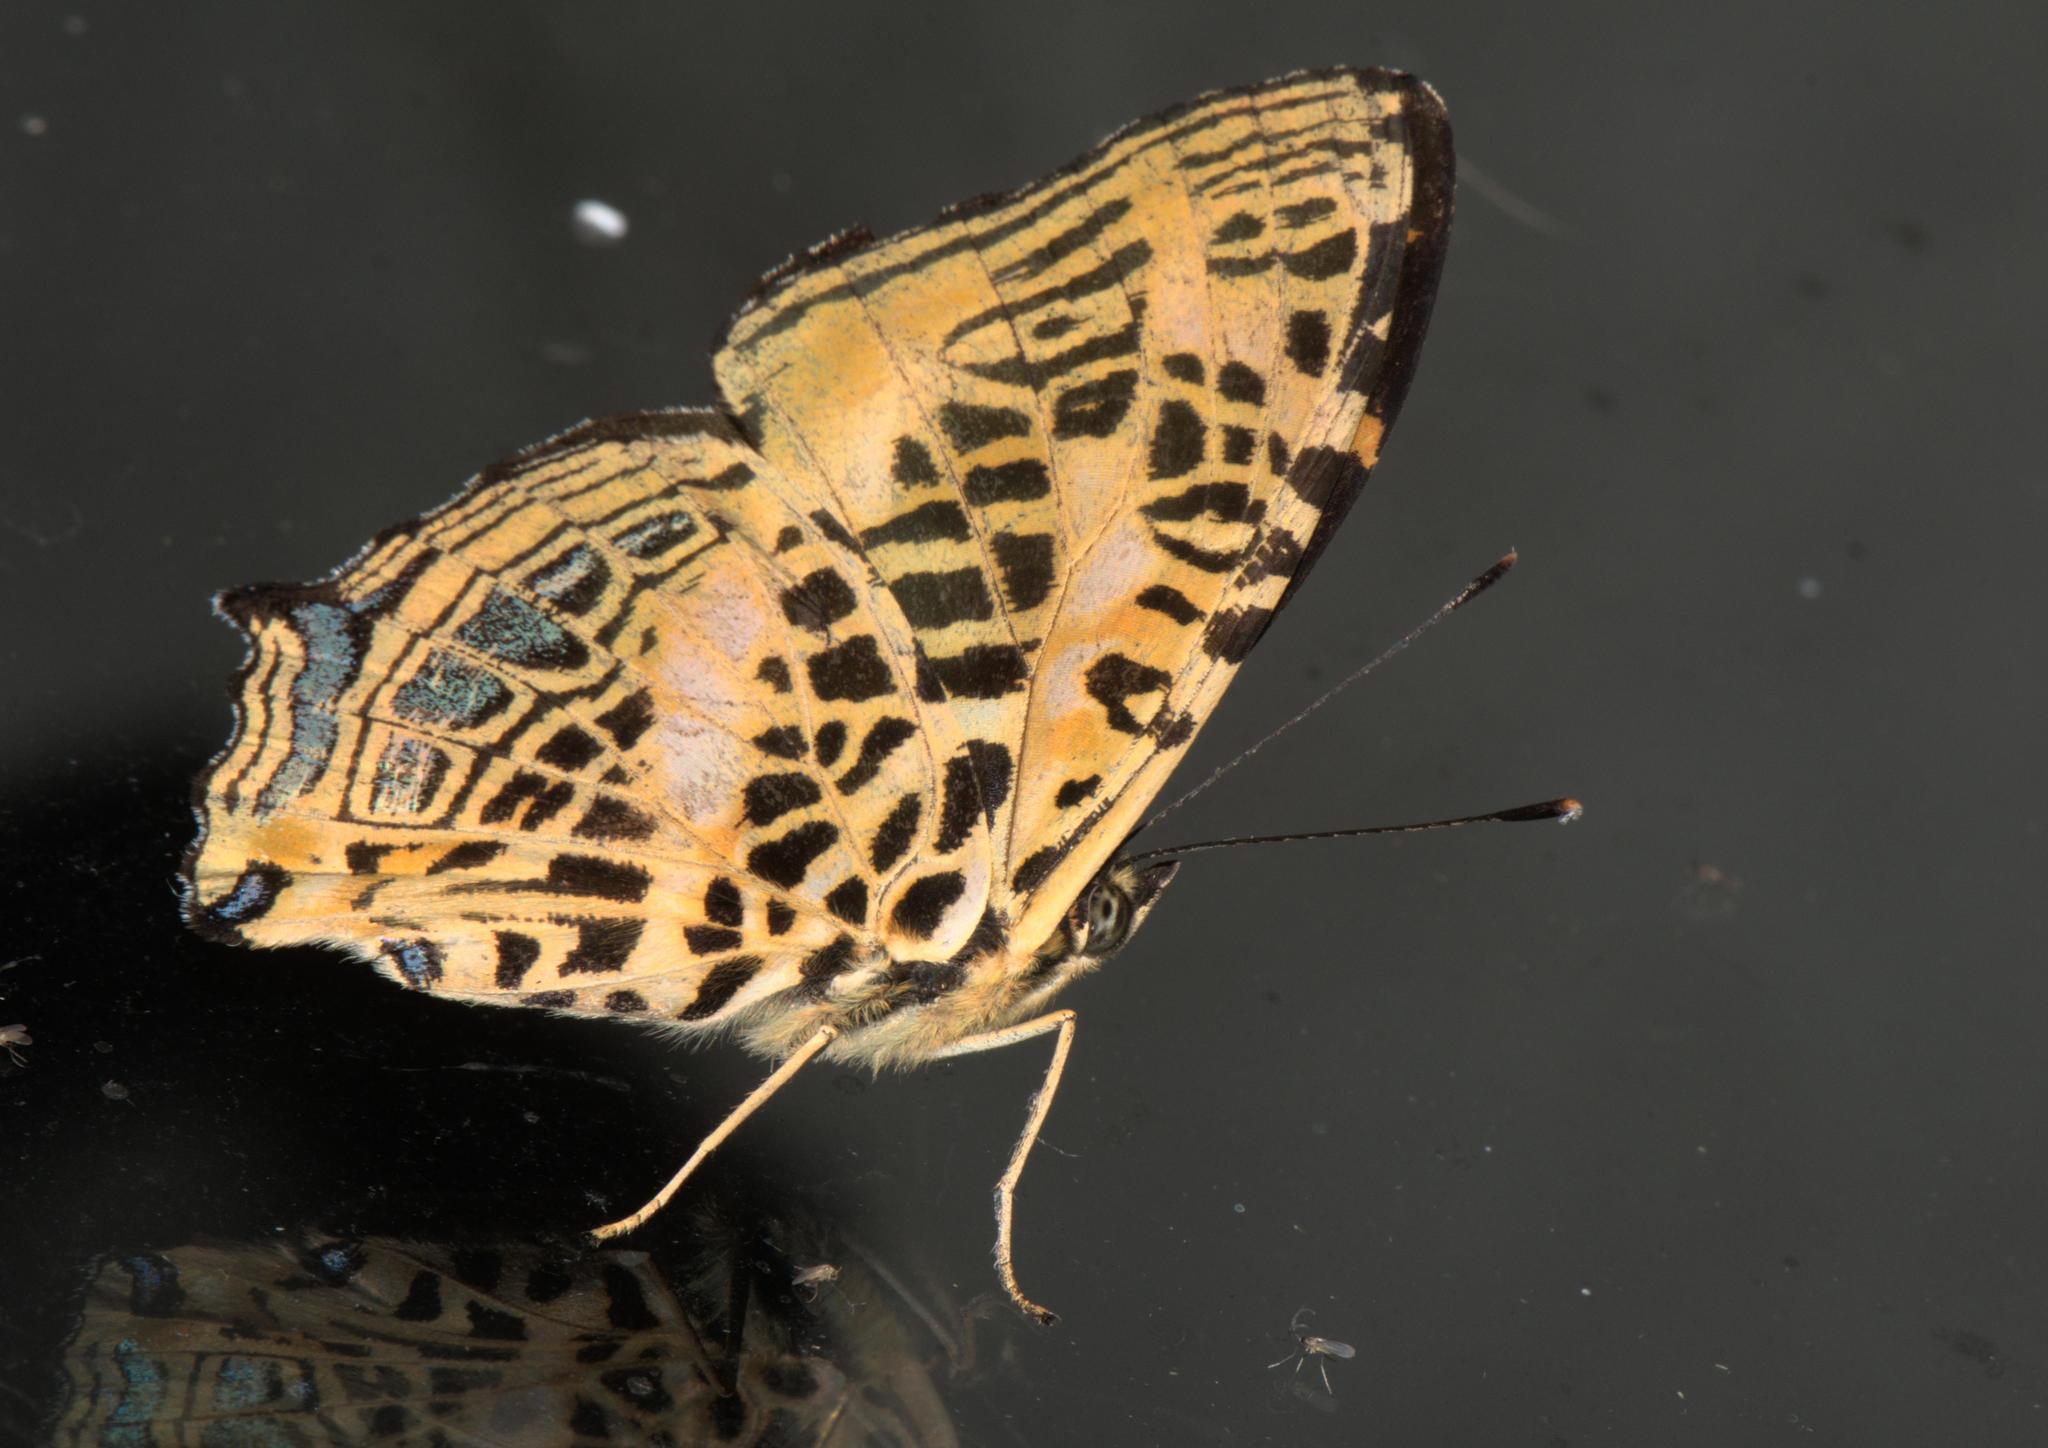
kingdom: Animalia
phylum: Arthropoda
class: Insecta
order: Lepidoptera
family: Nymphalidae
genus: Symbrenthia
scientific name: Symbrenthia niphanda
